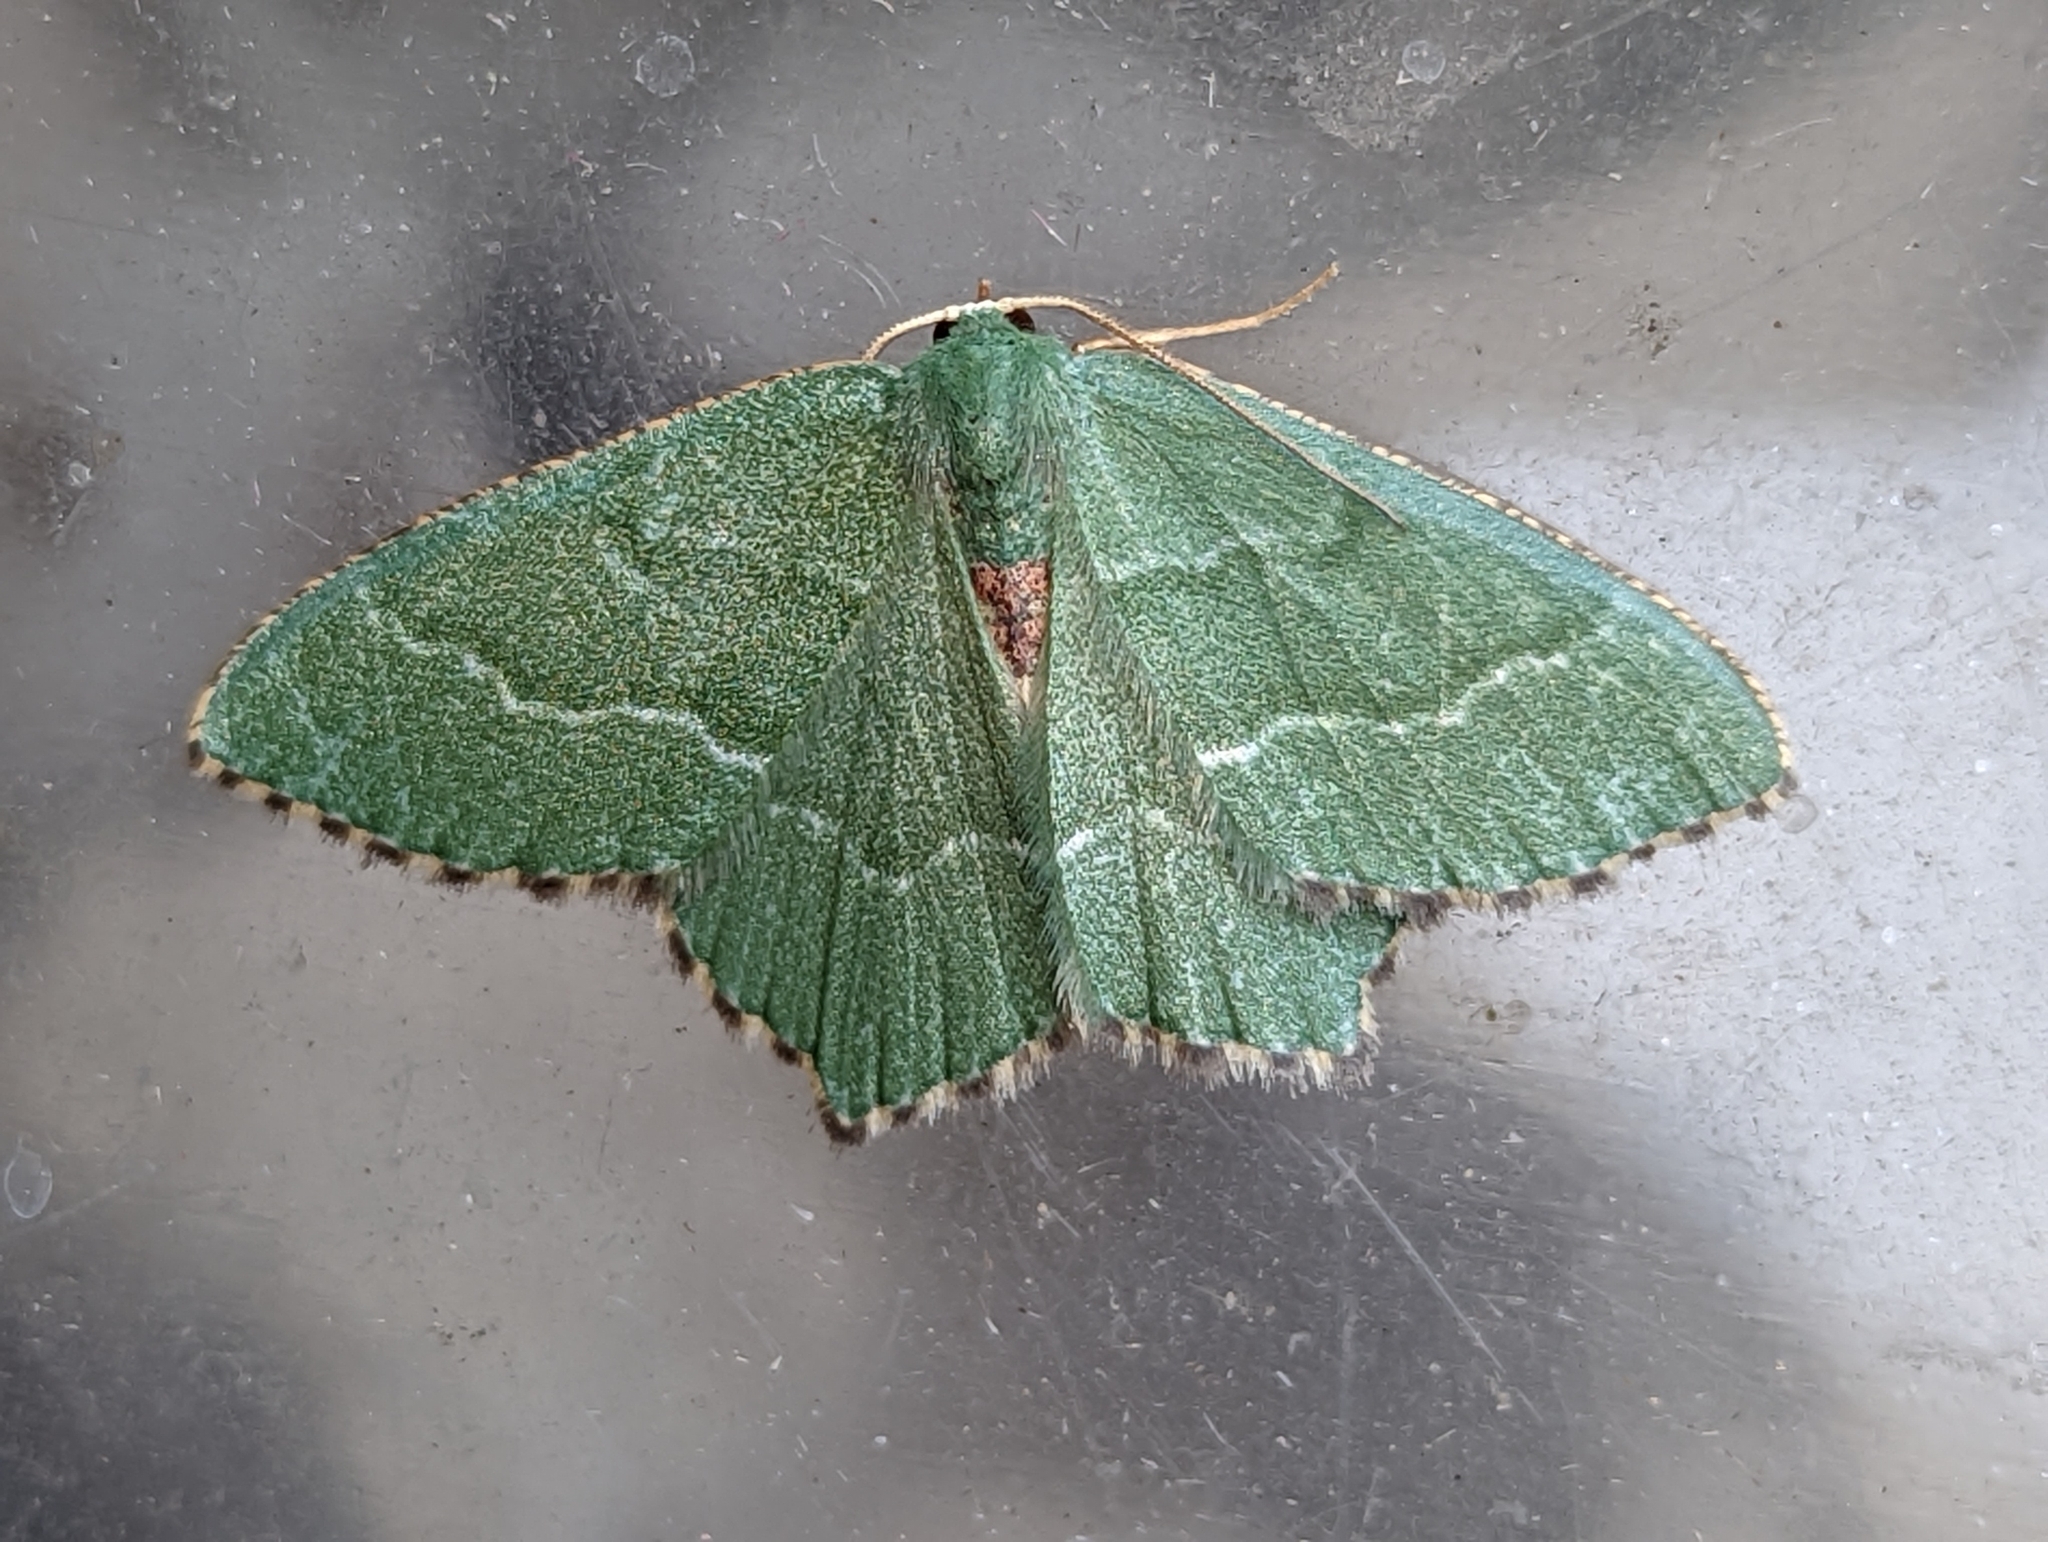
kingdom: Animalia
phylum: Arthropoda
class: Insecta
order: Lepidoptera
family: Geometridae
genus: Hemithea
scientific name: Hemithea aestivaria
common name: Common emerald
